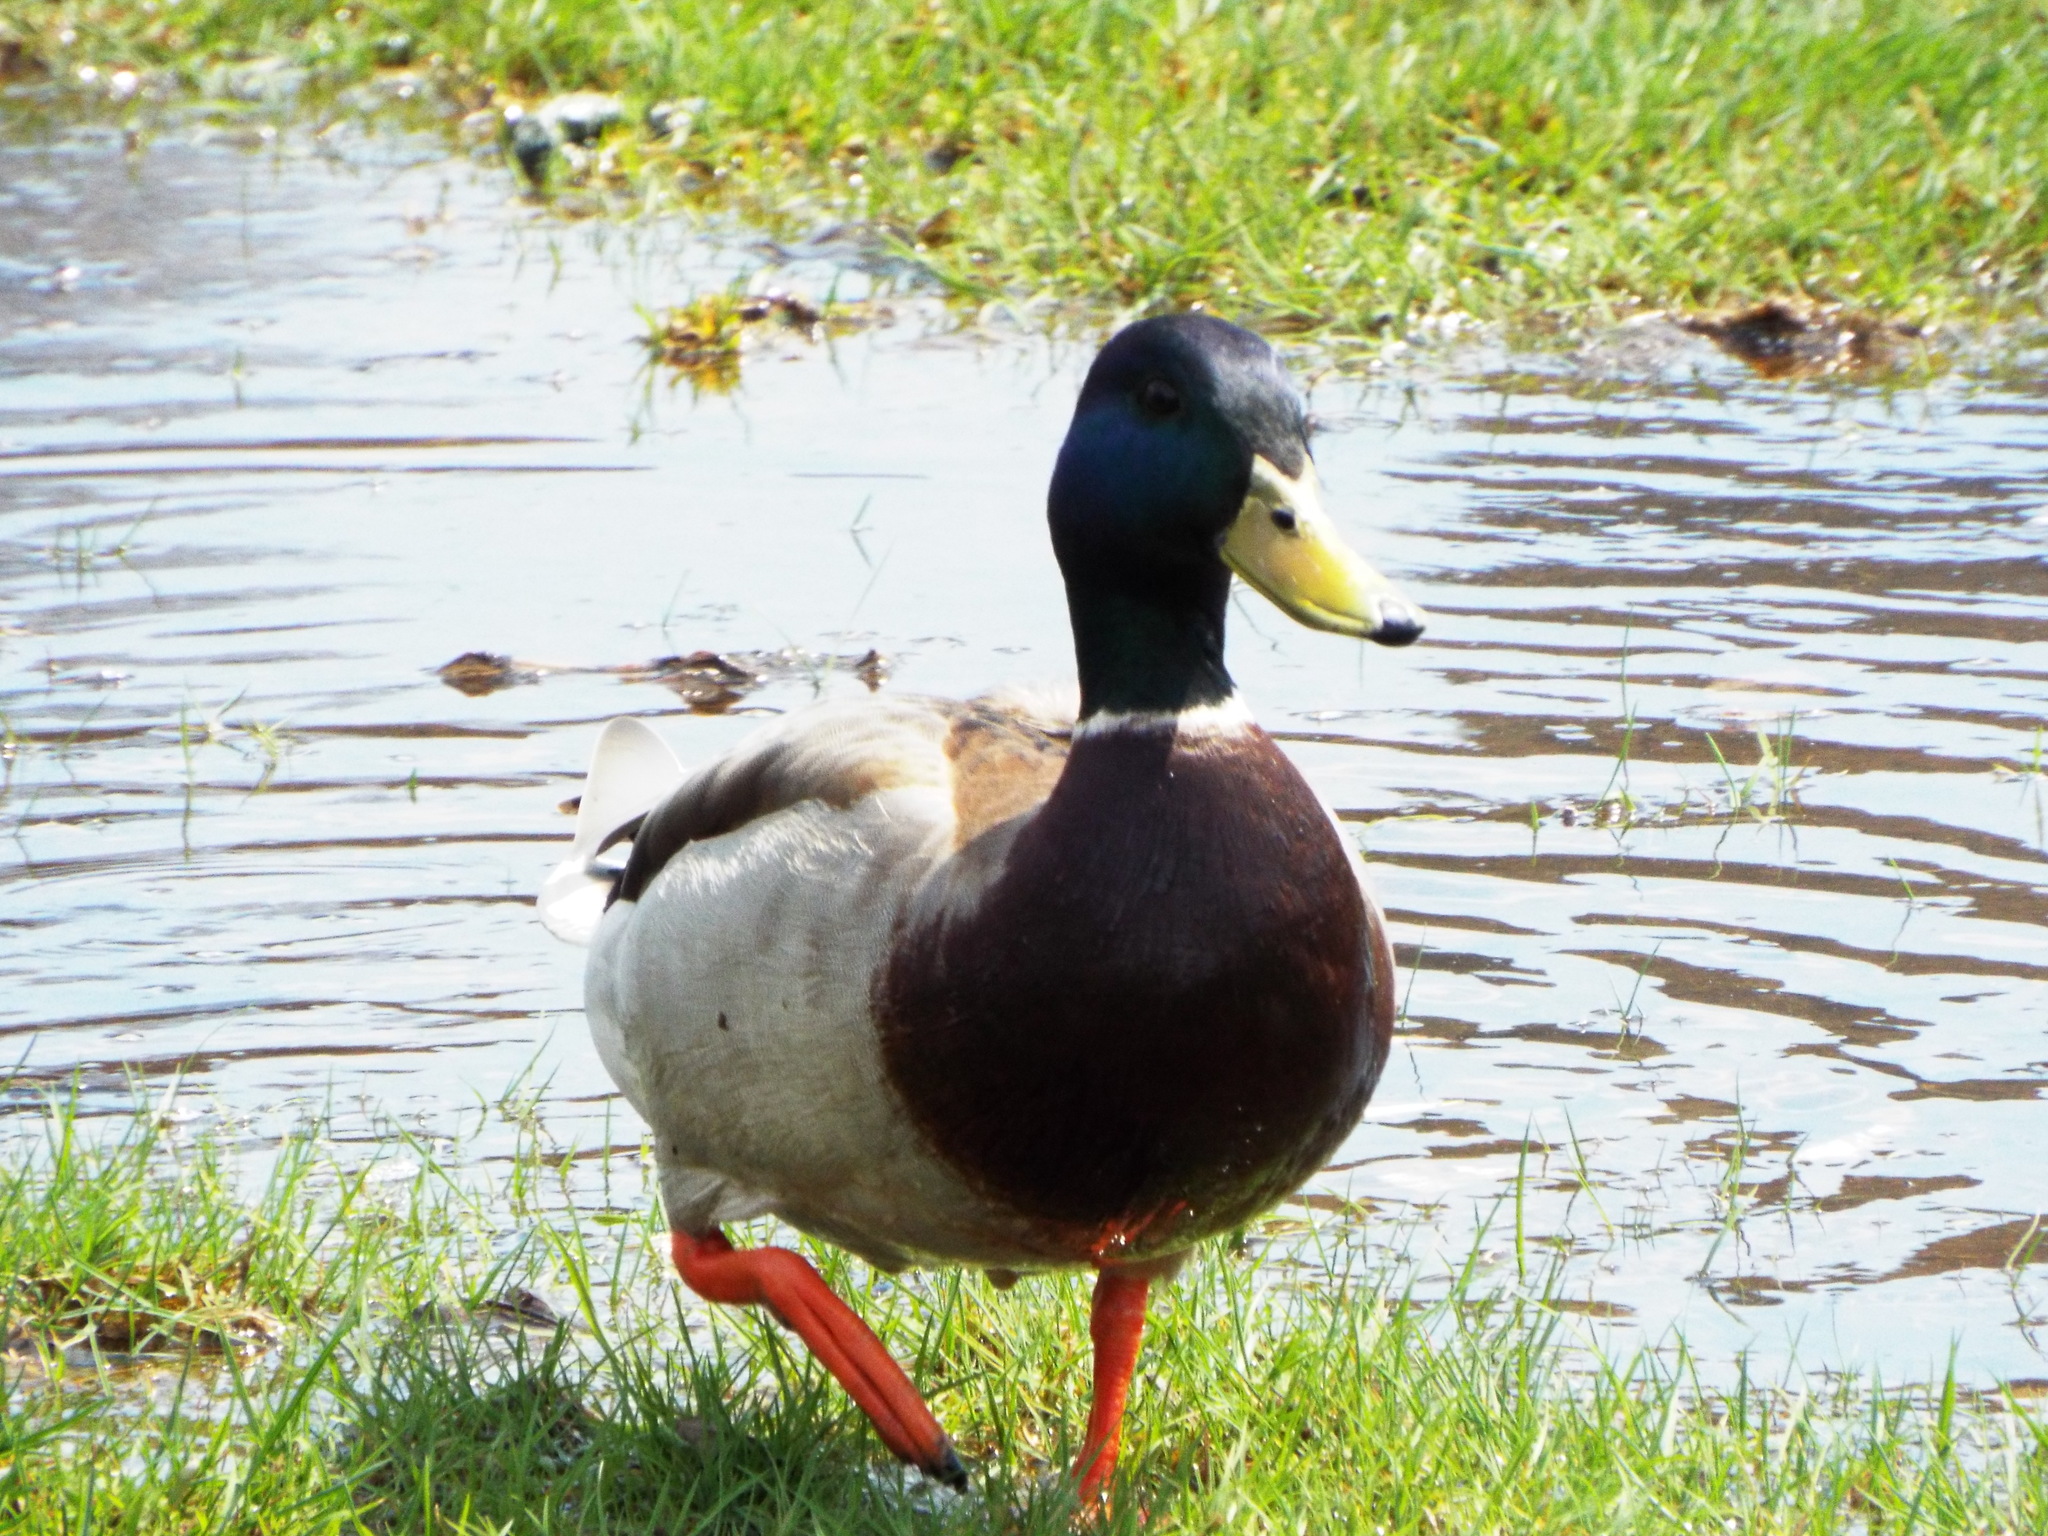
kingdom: Animalia
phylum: Chordata
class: Aves
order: Anseriformes
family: Anatidae
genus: Anas
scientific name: Anas platyrhynchos
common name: Mallard
